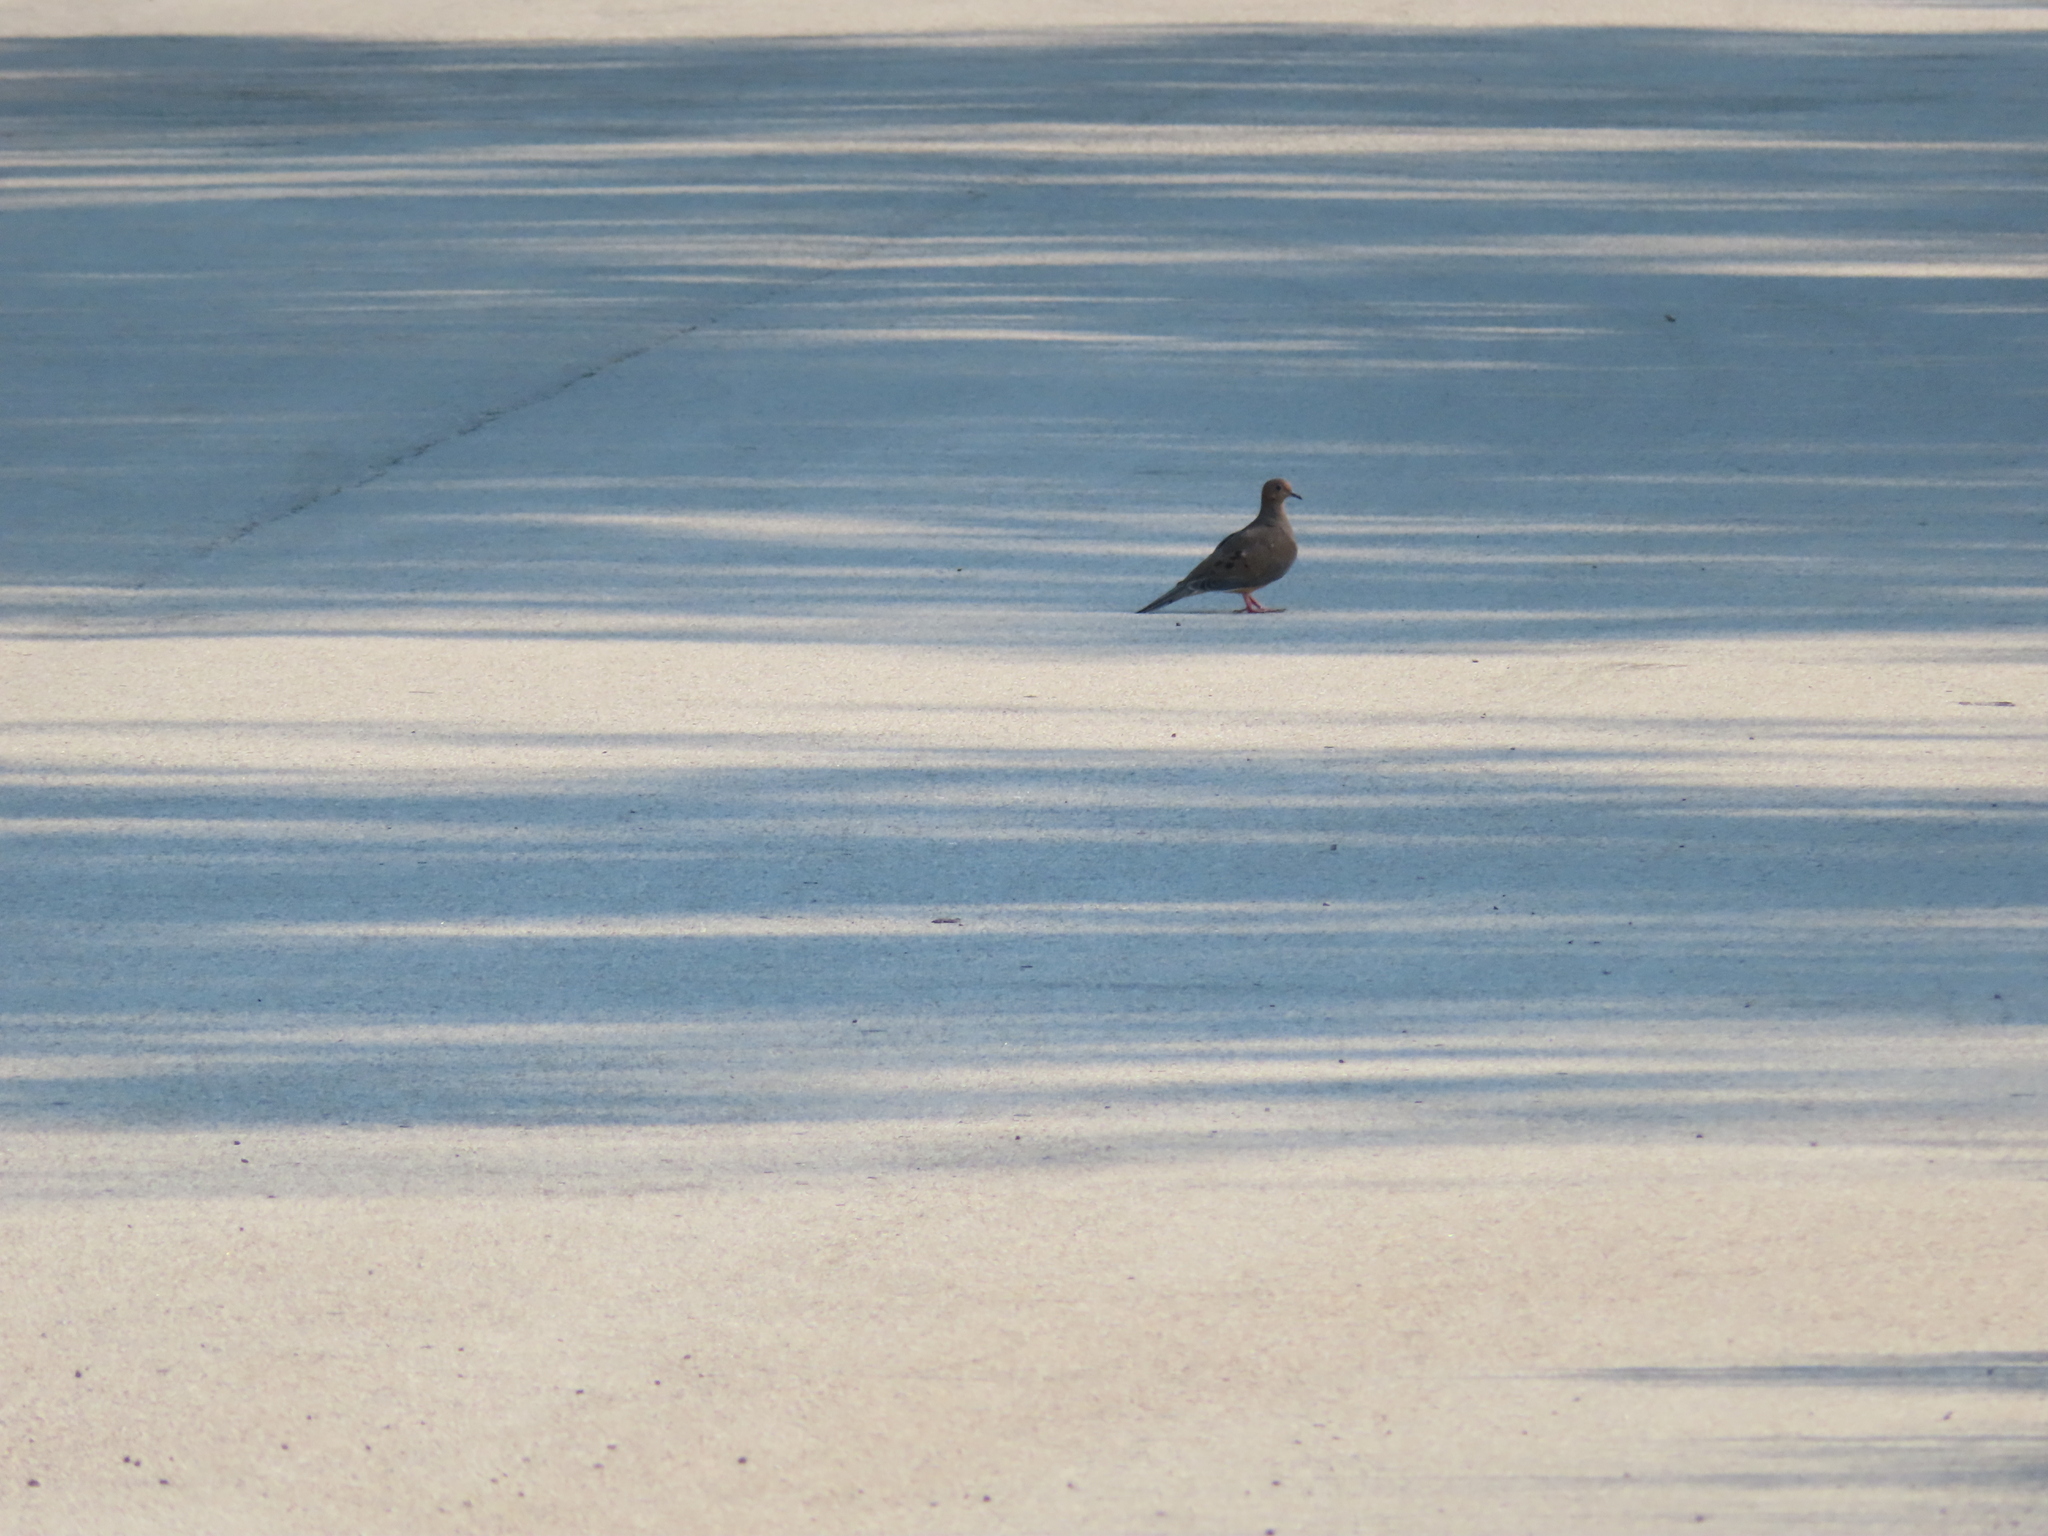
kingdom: Animalia
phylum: Chordata
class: Aves
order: Columbiformes
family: Columbidae
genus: Zenaida
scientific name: Zenaida macroura
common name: Mourning dove
